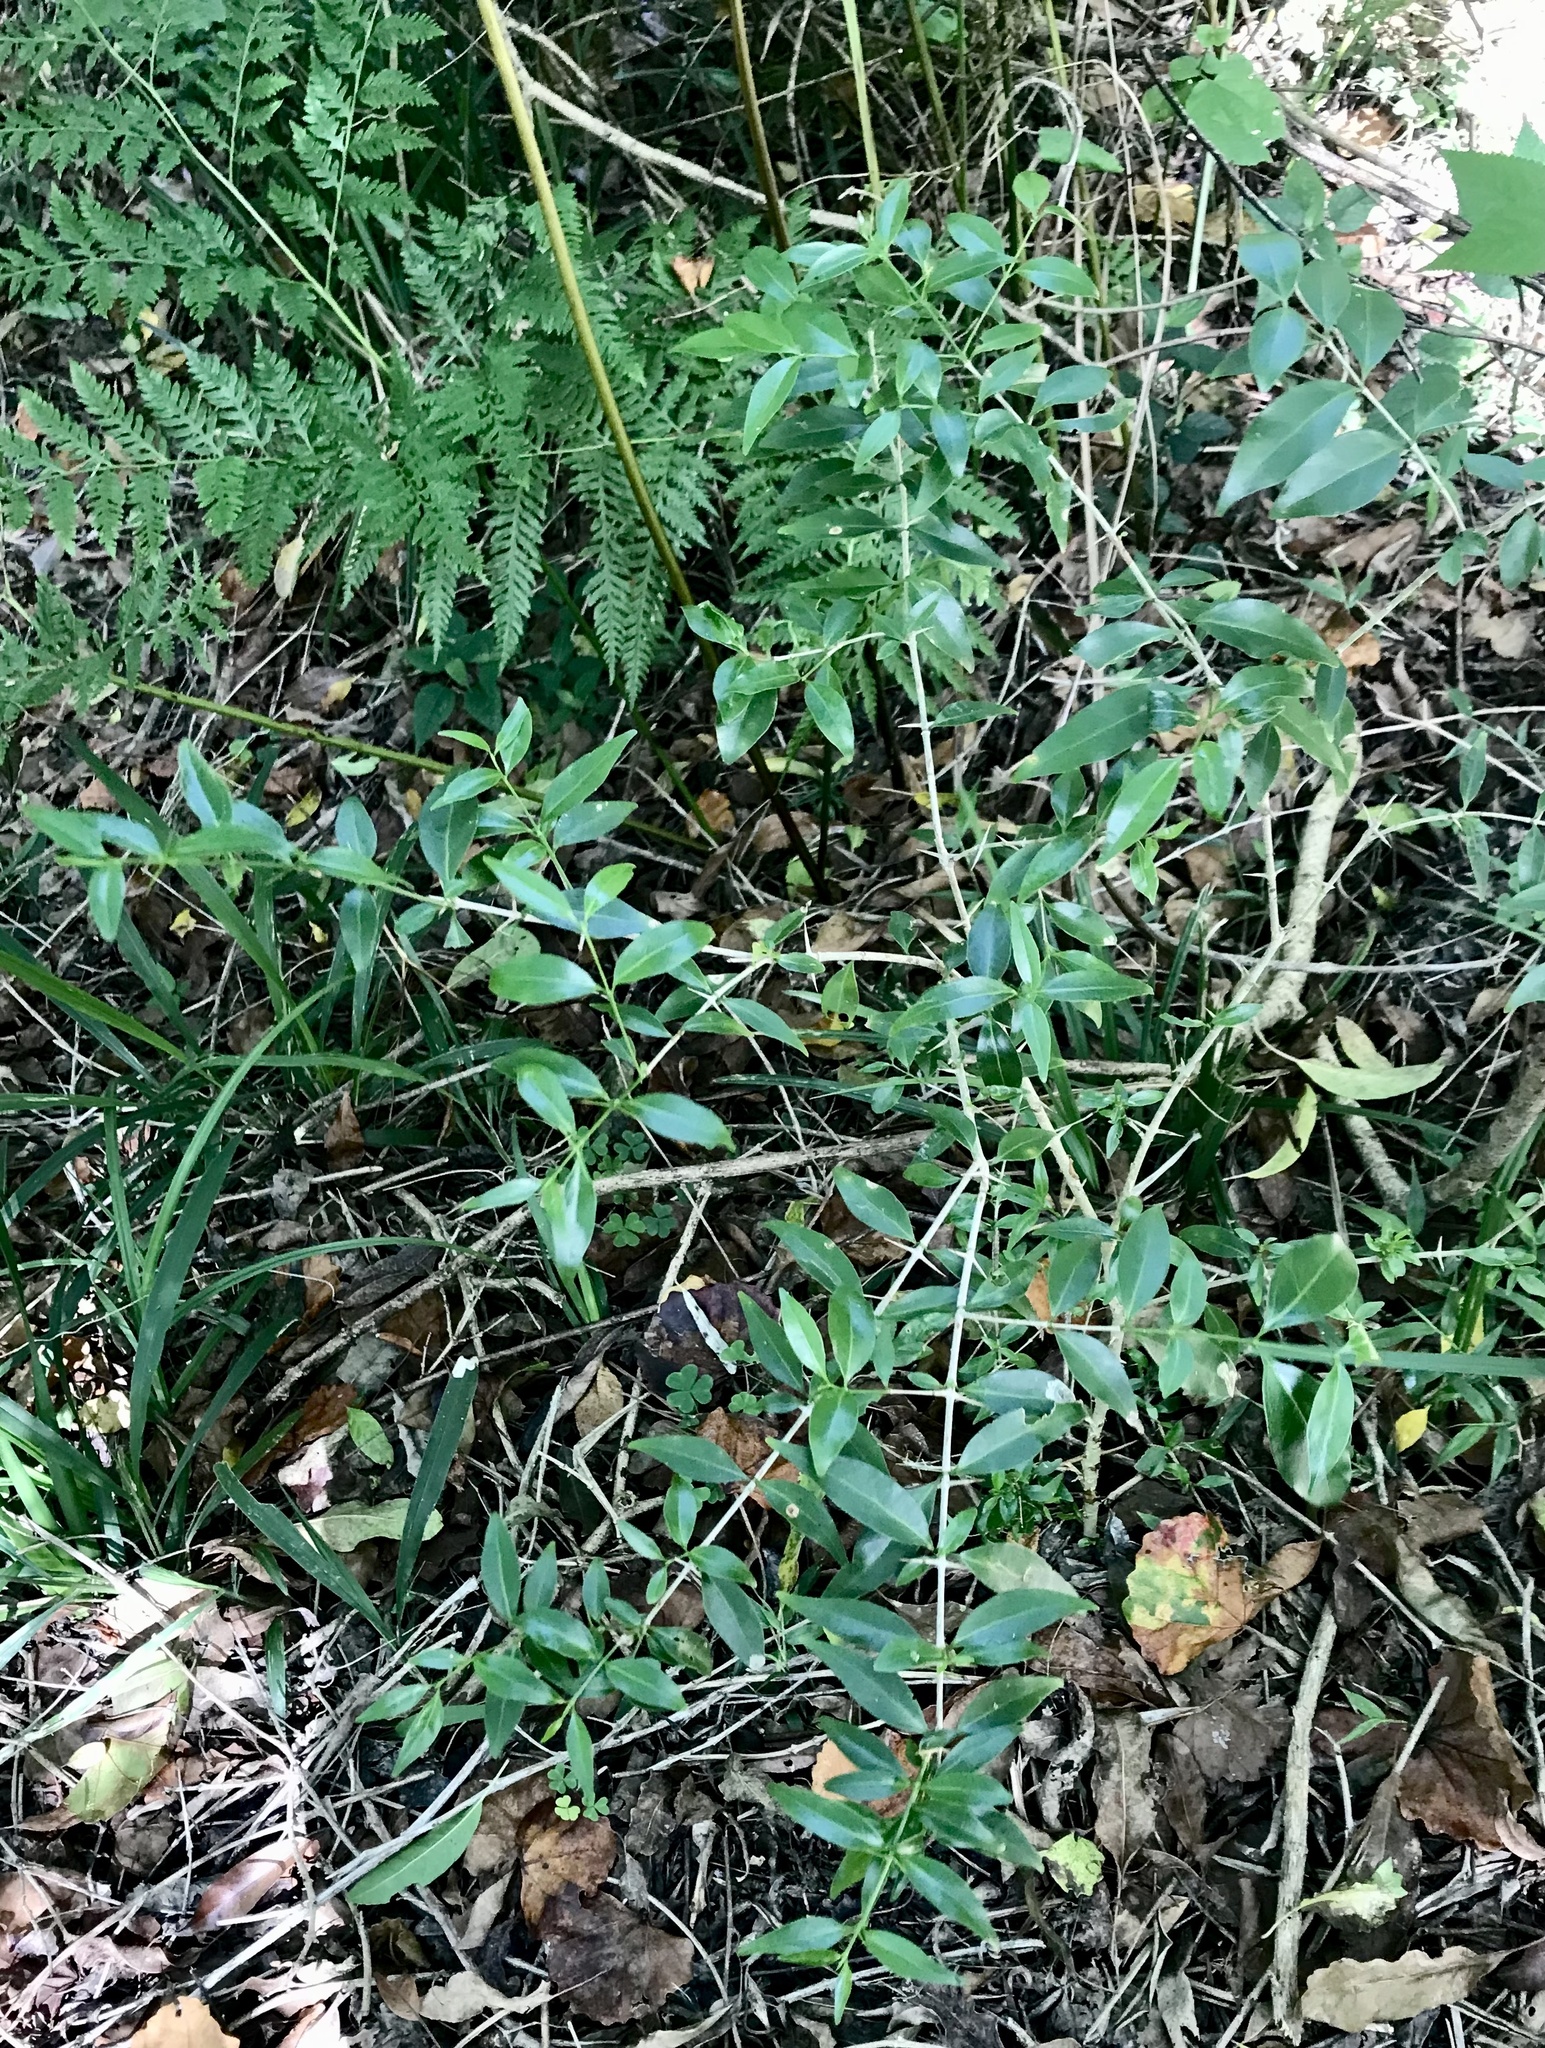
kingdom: Plantae
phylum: Tracheophyta
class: Magnoliopsida
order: Gentianales
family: Rubiaceae
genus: Canthium
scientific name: Canthium inerme
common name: Unarmed turkey-berry
